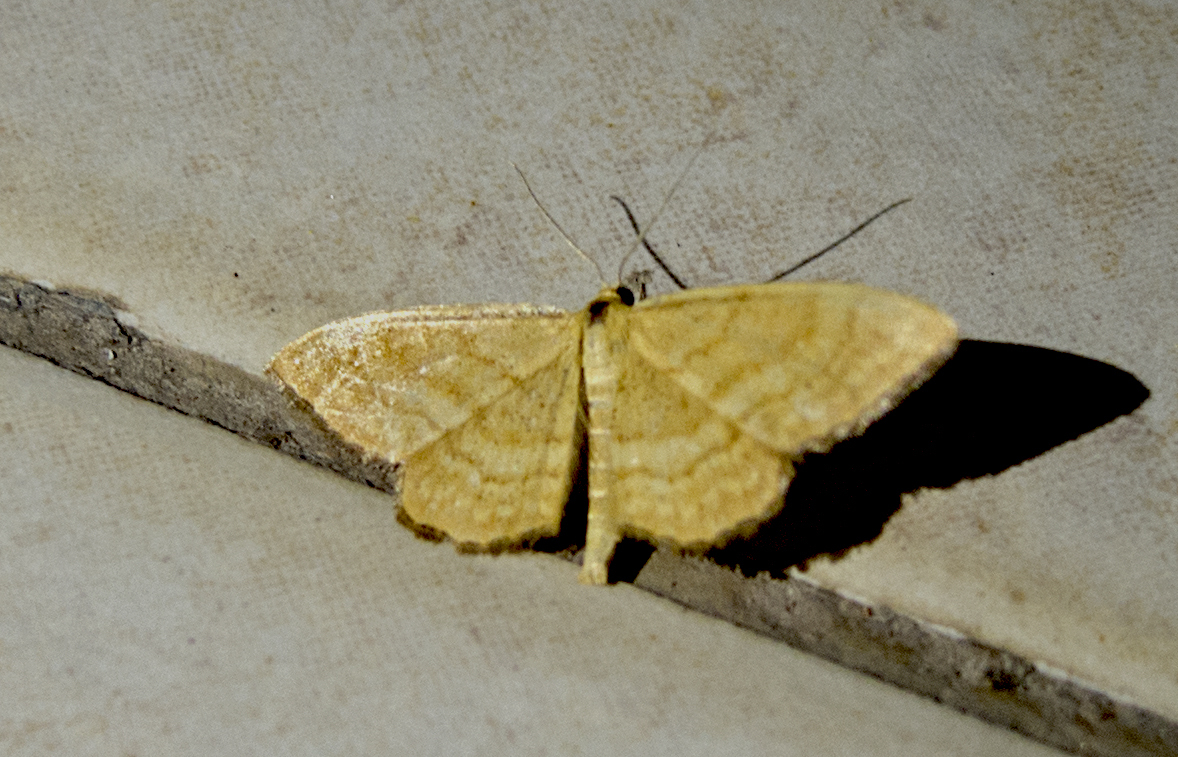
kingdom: Animalia
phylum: Arthropoda
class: Insecta
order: Lepidoptera
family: Geometridae
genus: Idaea
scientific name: Idaea ochrata
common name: Bright wave
